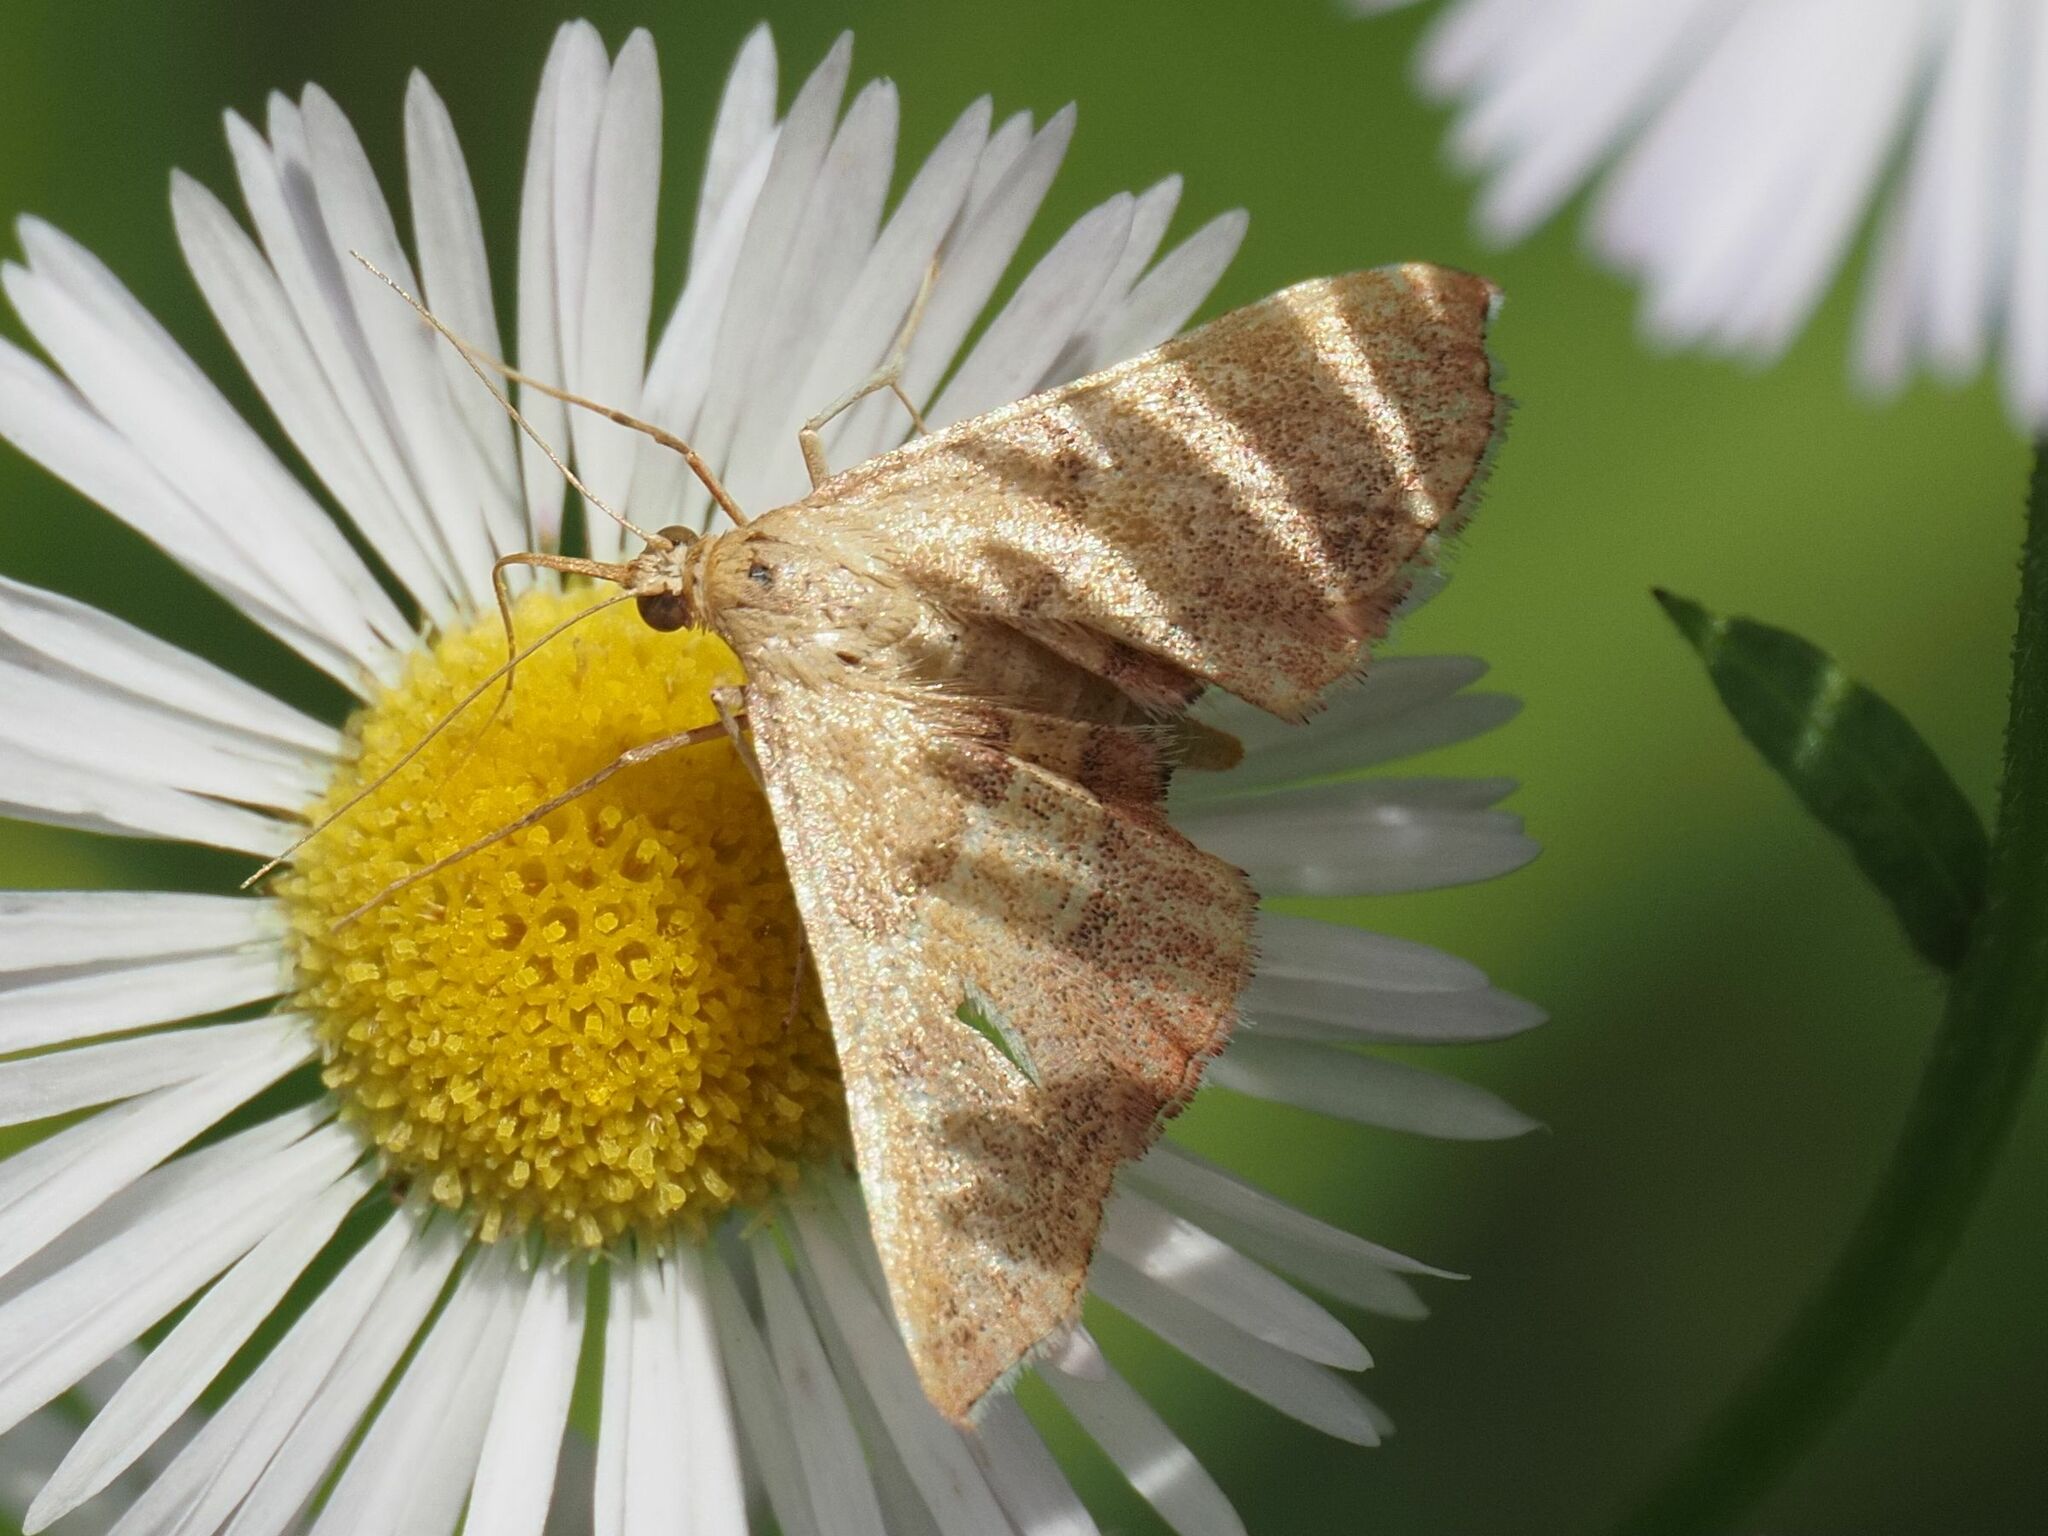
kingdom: Animalia
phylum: Arthropoda
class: Insecta
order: Lepidoptera
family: Pyralidae
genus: Endotricha
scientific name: Endotricha flammealis
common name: Rosy tabby
